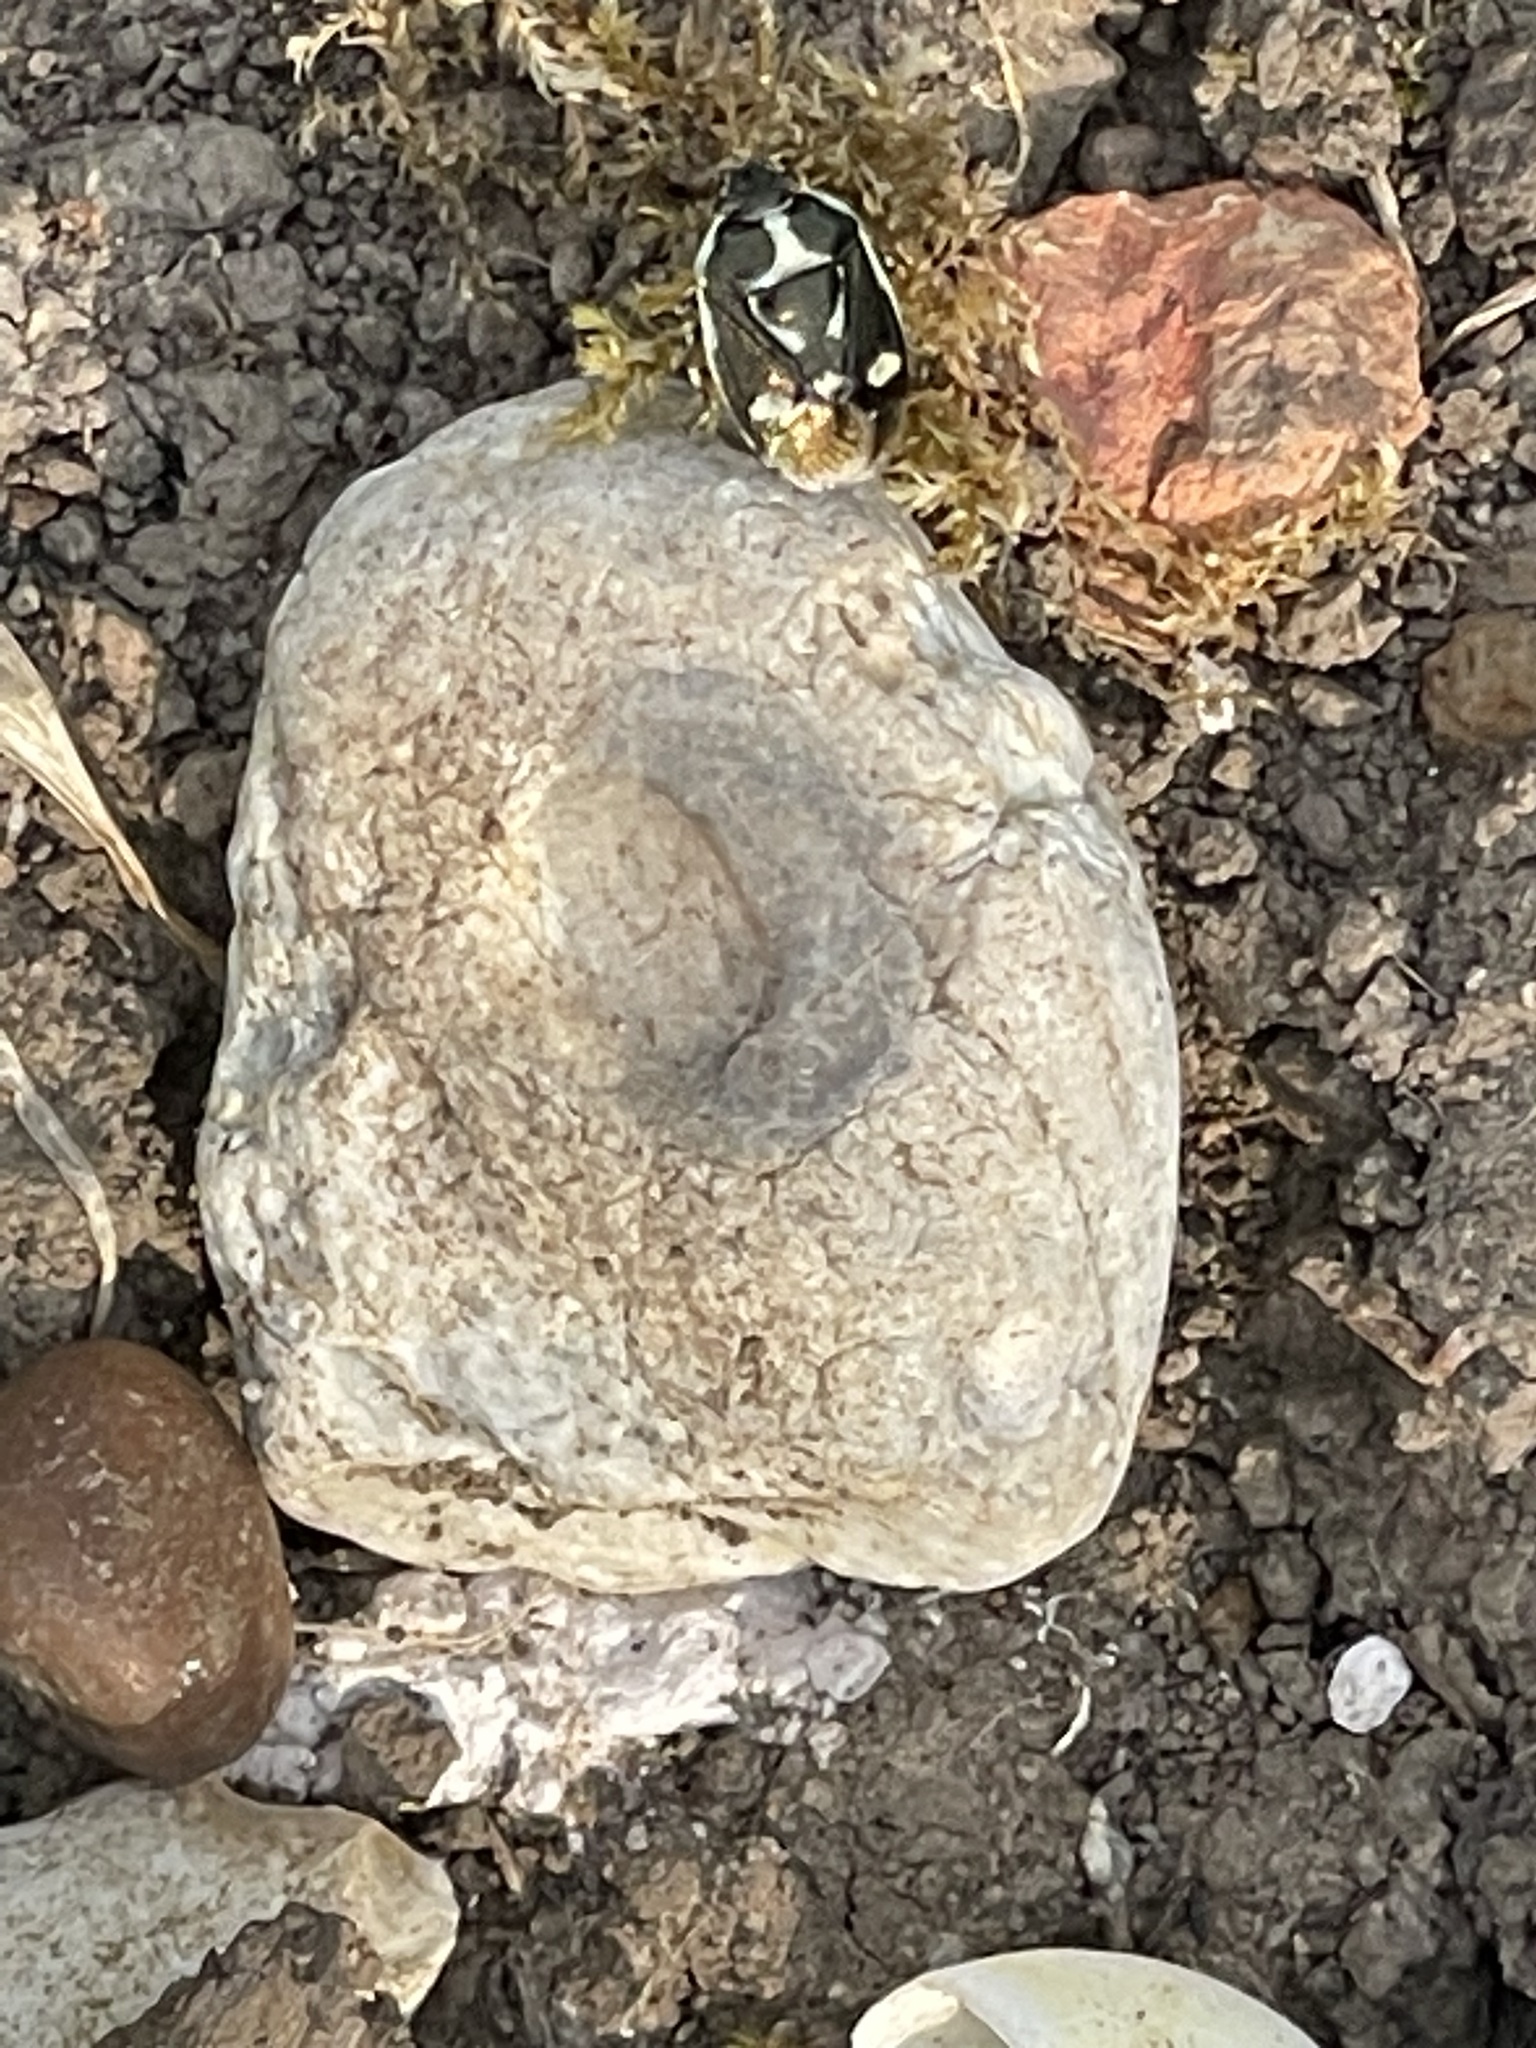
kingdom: Animalia
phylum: Arthropoda
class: Insecta
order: Hemiptera
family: Pentatomidae
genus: Eurydema
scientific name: Eurydema oleracea
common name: Cabbage bug
